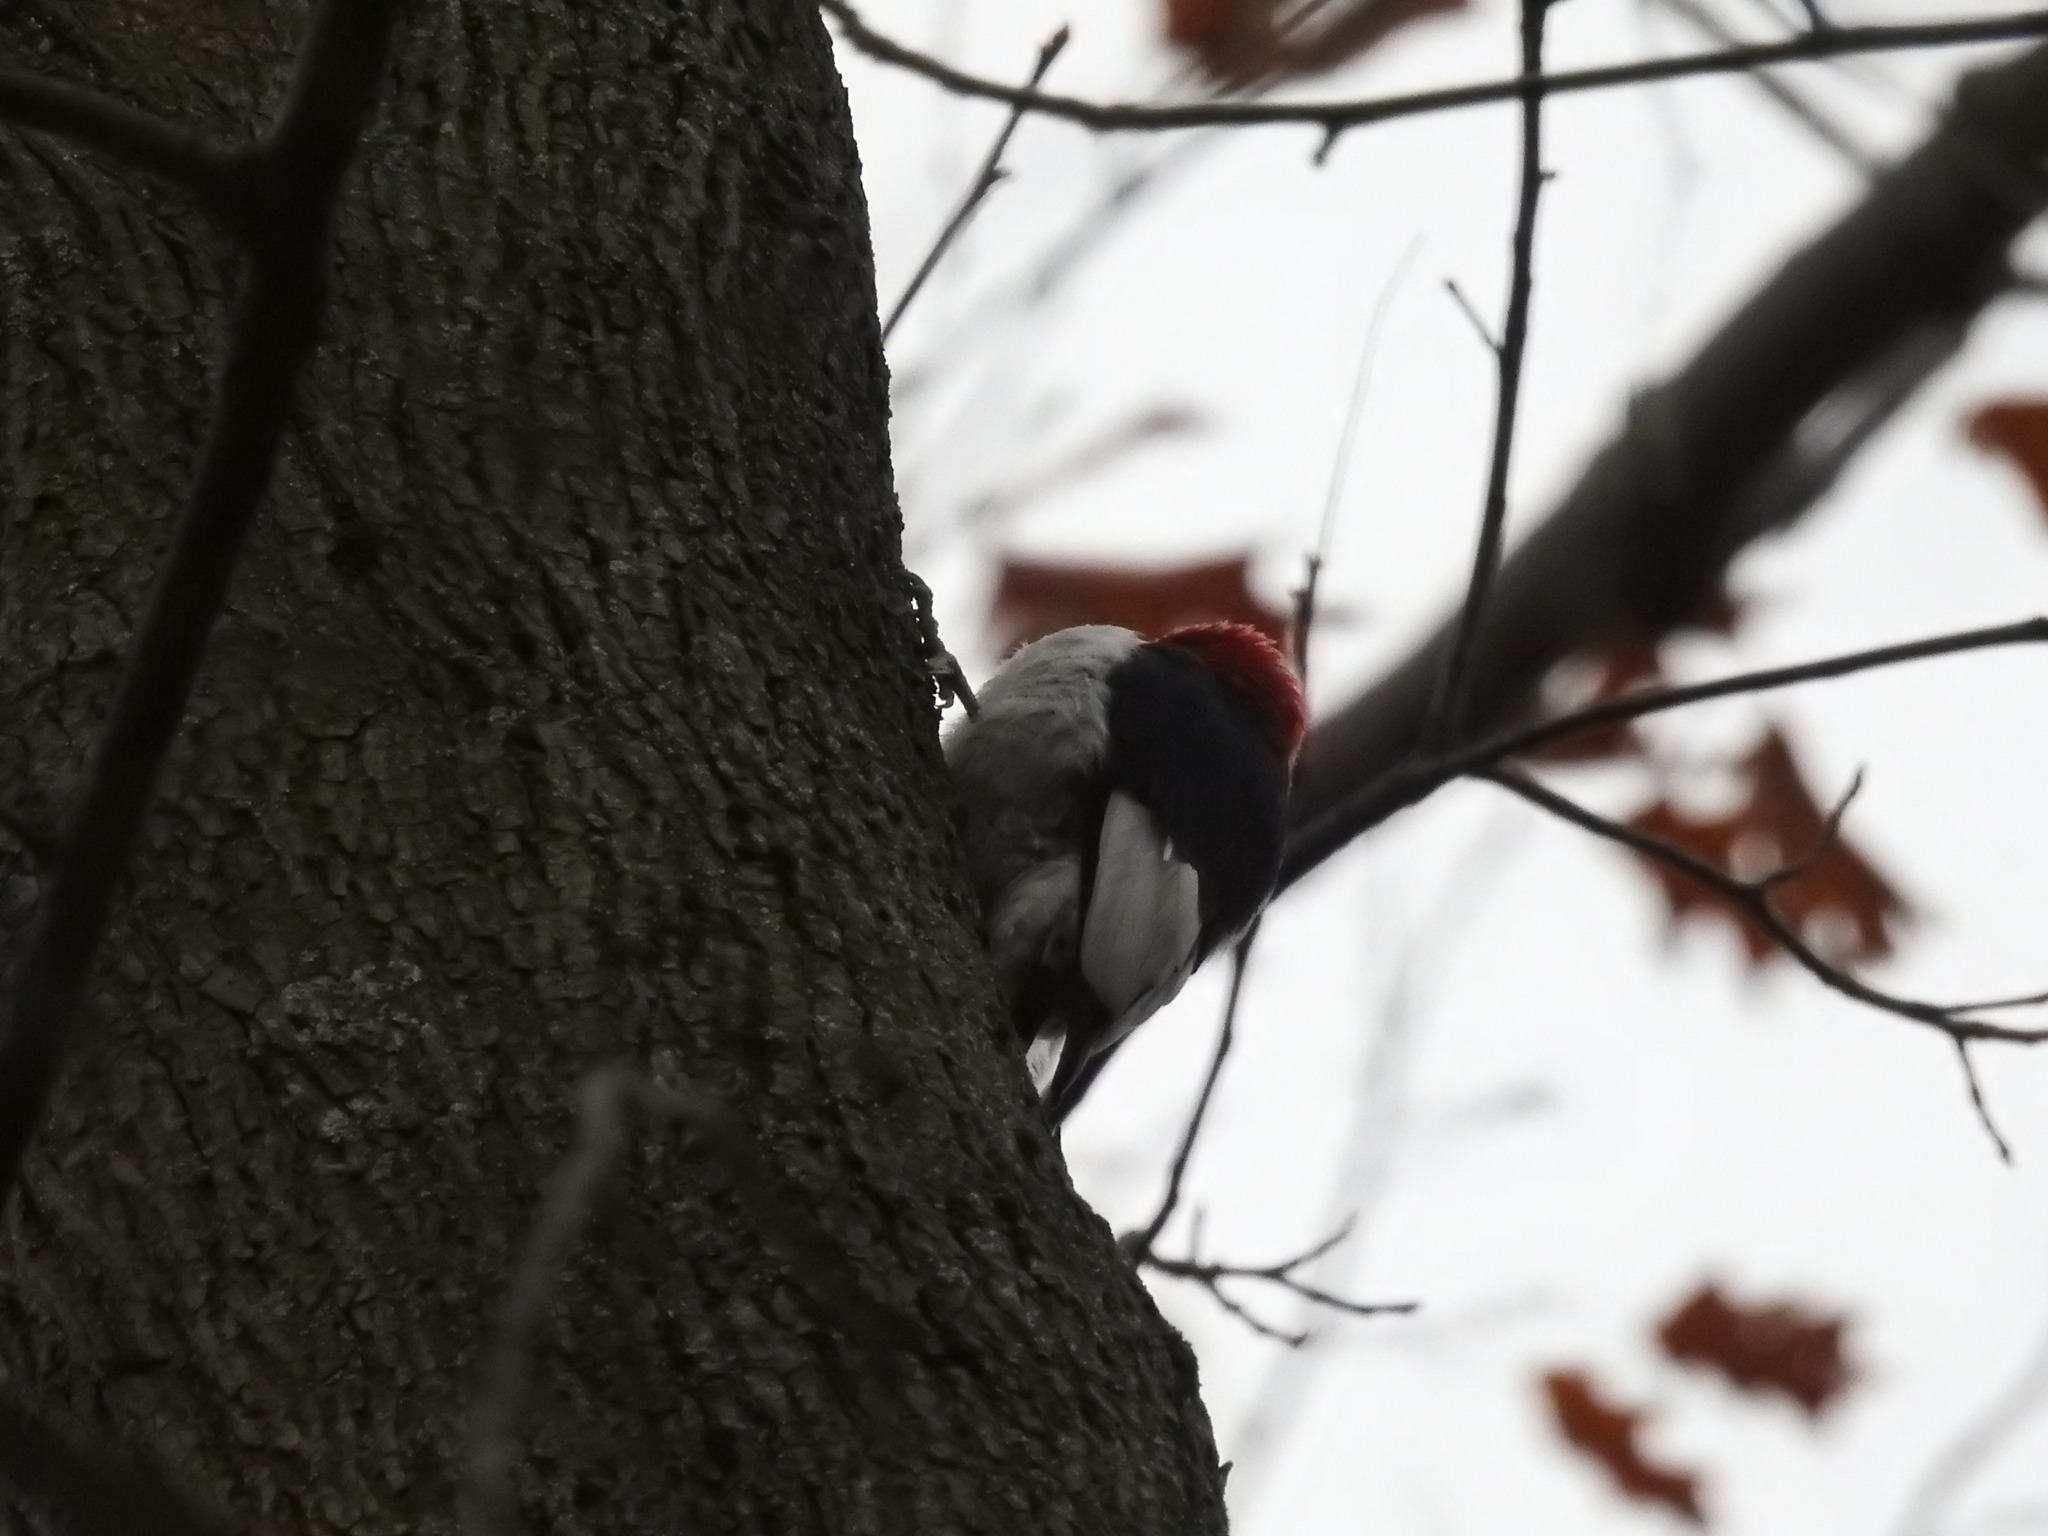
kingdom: Animalia
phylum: Chordata
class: Aves
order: Piciformes
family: Picidae
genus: Melanerpes
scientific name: Melanerpes erythrocephalus
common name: Red-headed woodpecker
